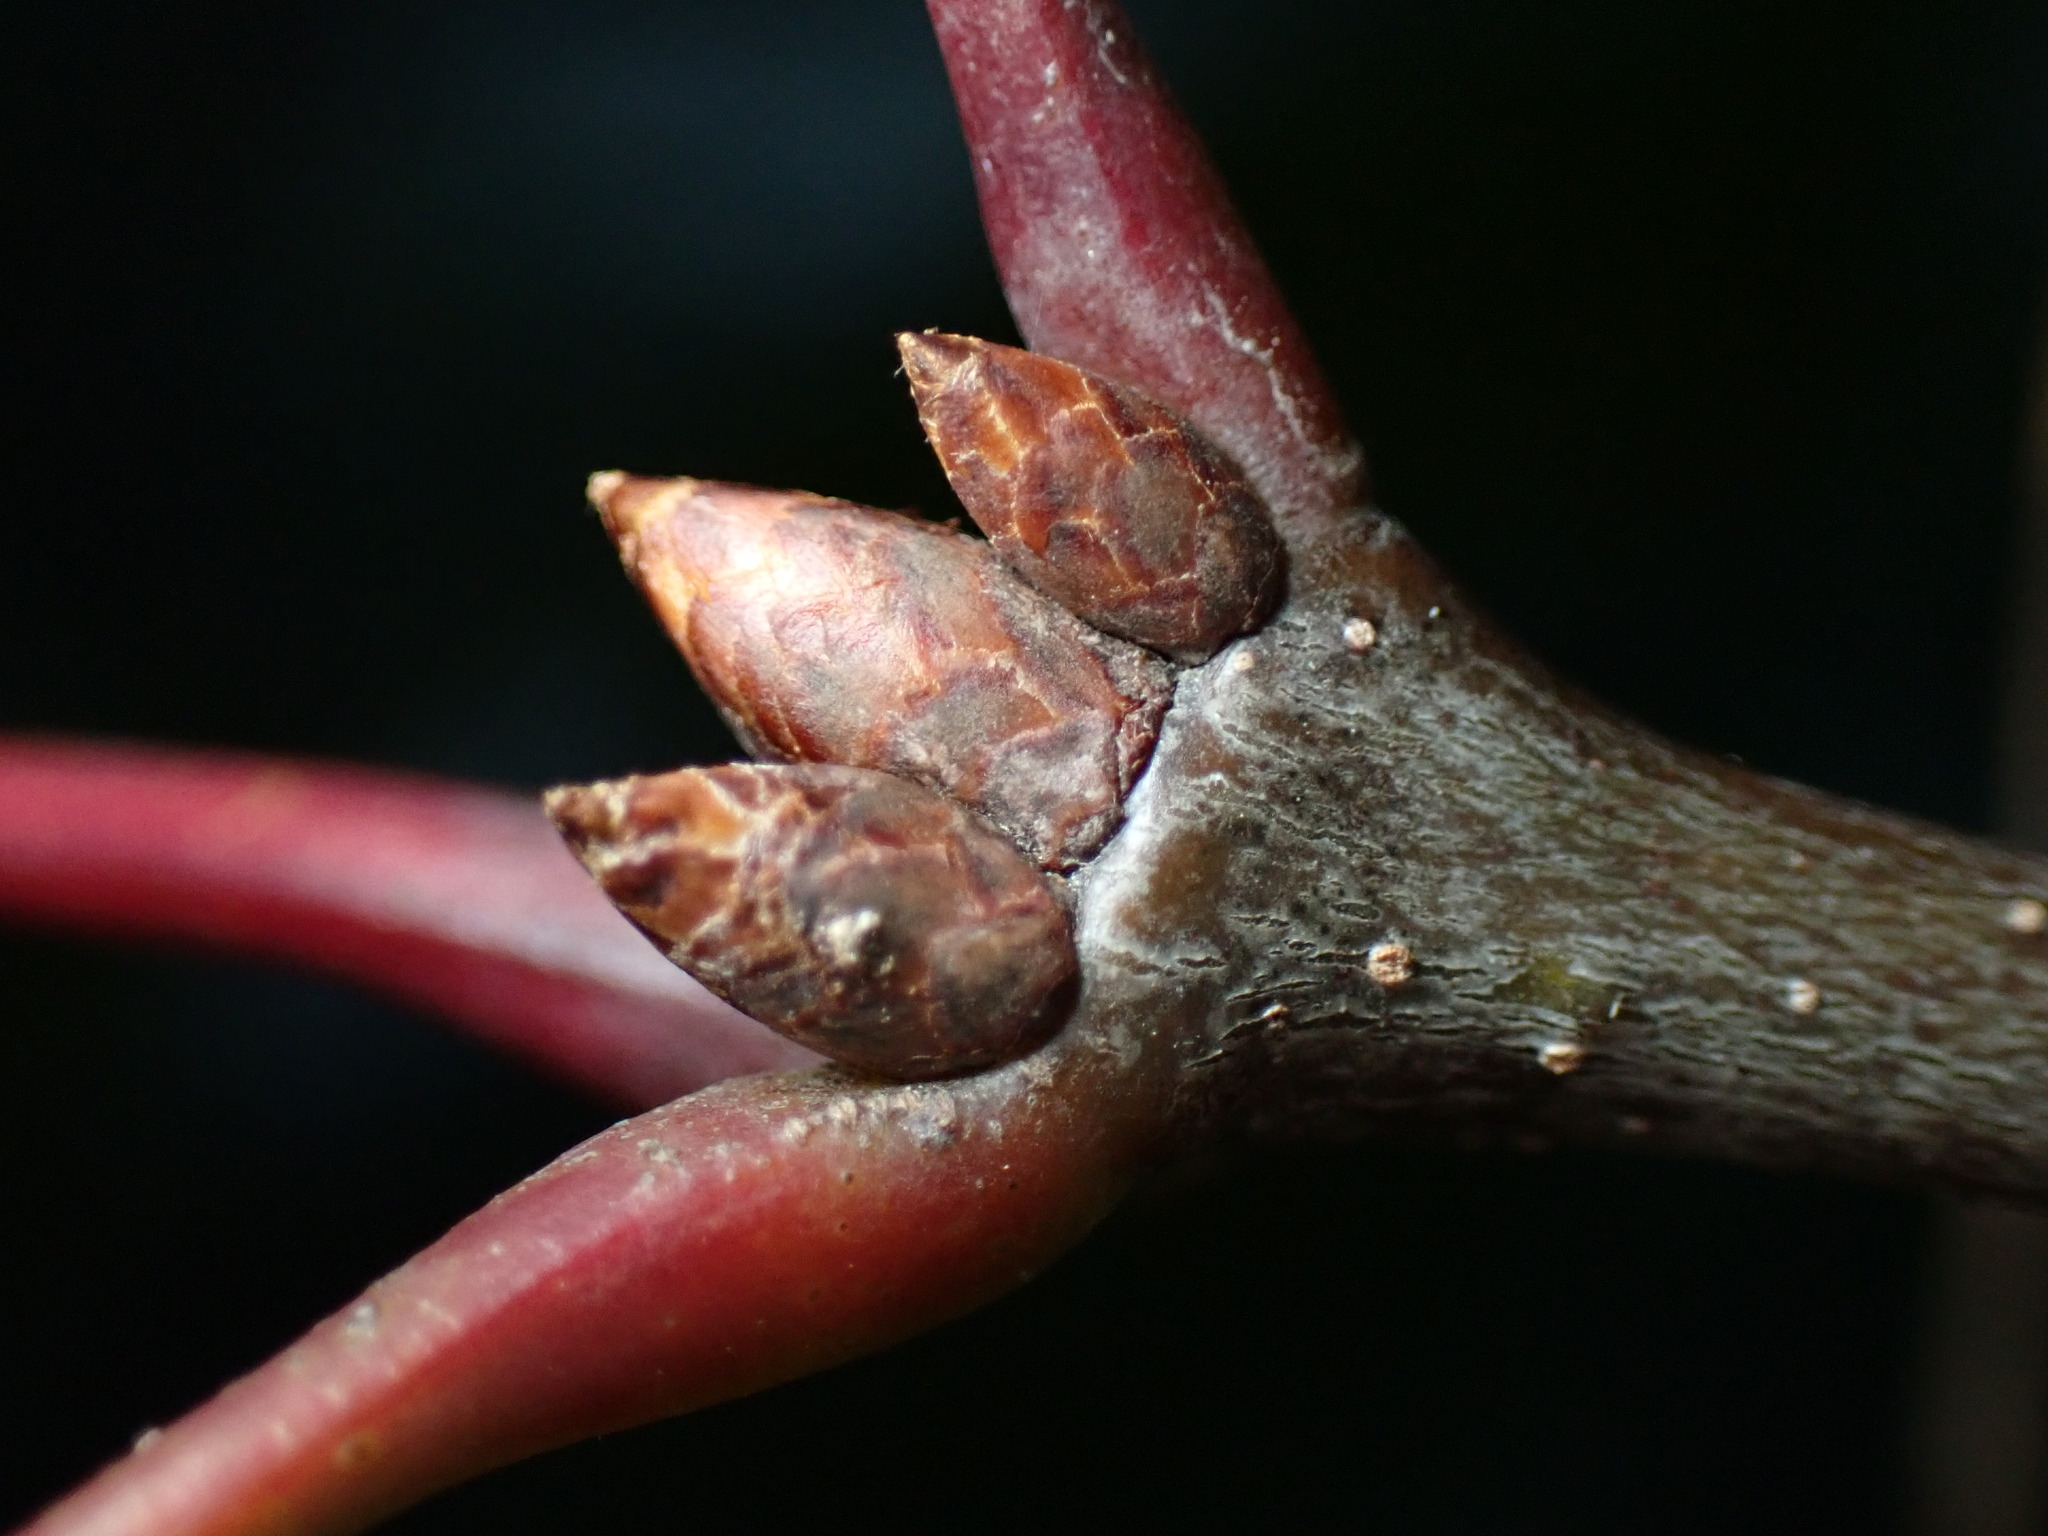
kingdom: Plantae
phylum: Tracheophyta
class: Magnoliopsida
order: Fagales
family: Fagaceae
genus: Quercus
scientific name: Quercus rubra
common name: Red oak
